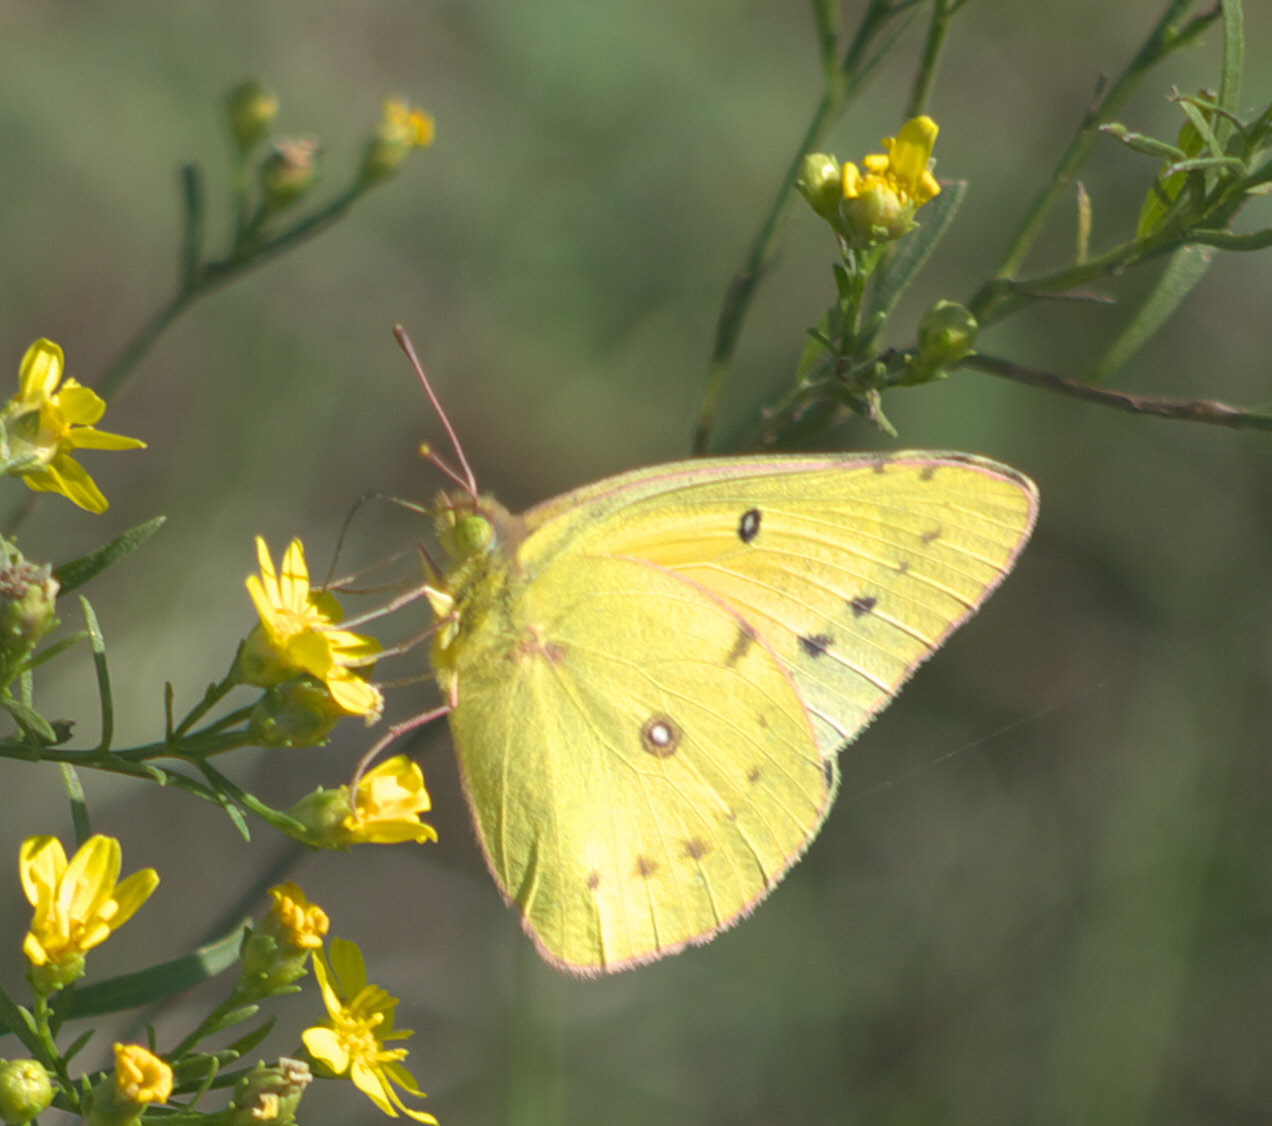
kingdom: Animalia
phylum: Arthropoda
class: Insecta
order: Lepidoptera
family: Pieridae
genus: Colias
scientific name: Colias eurytheme
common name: Alfalfa butterfly
